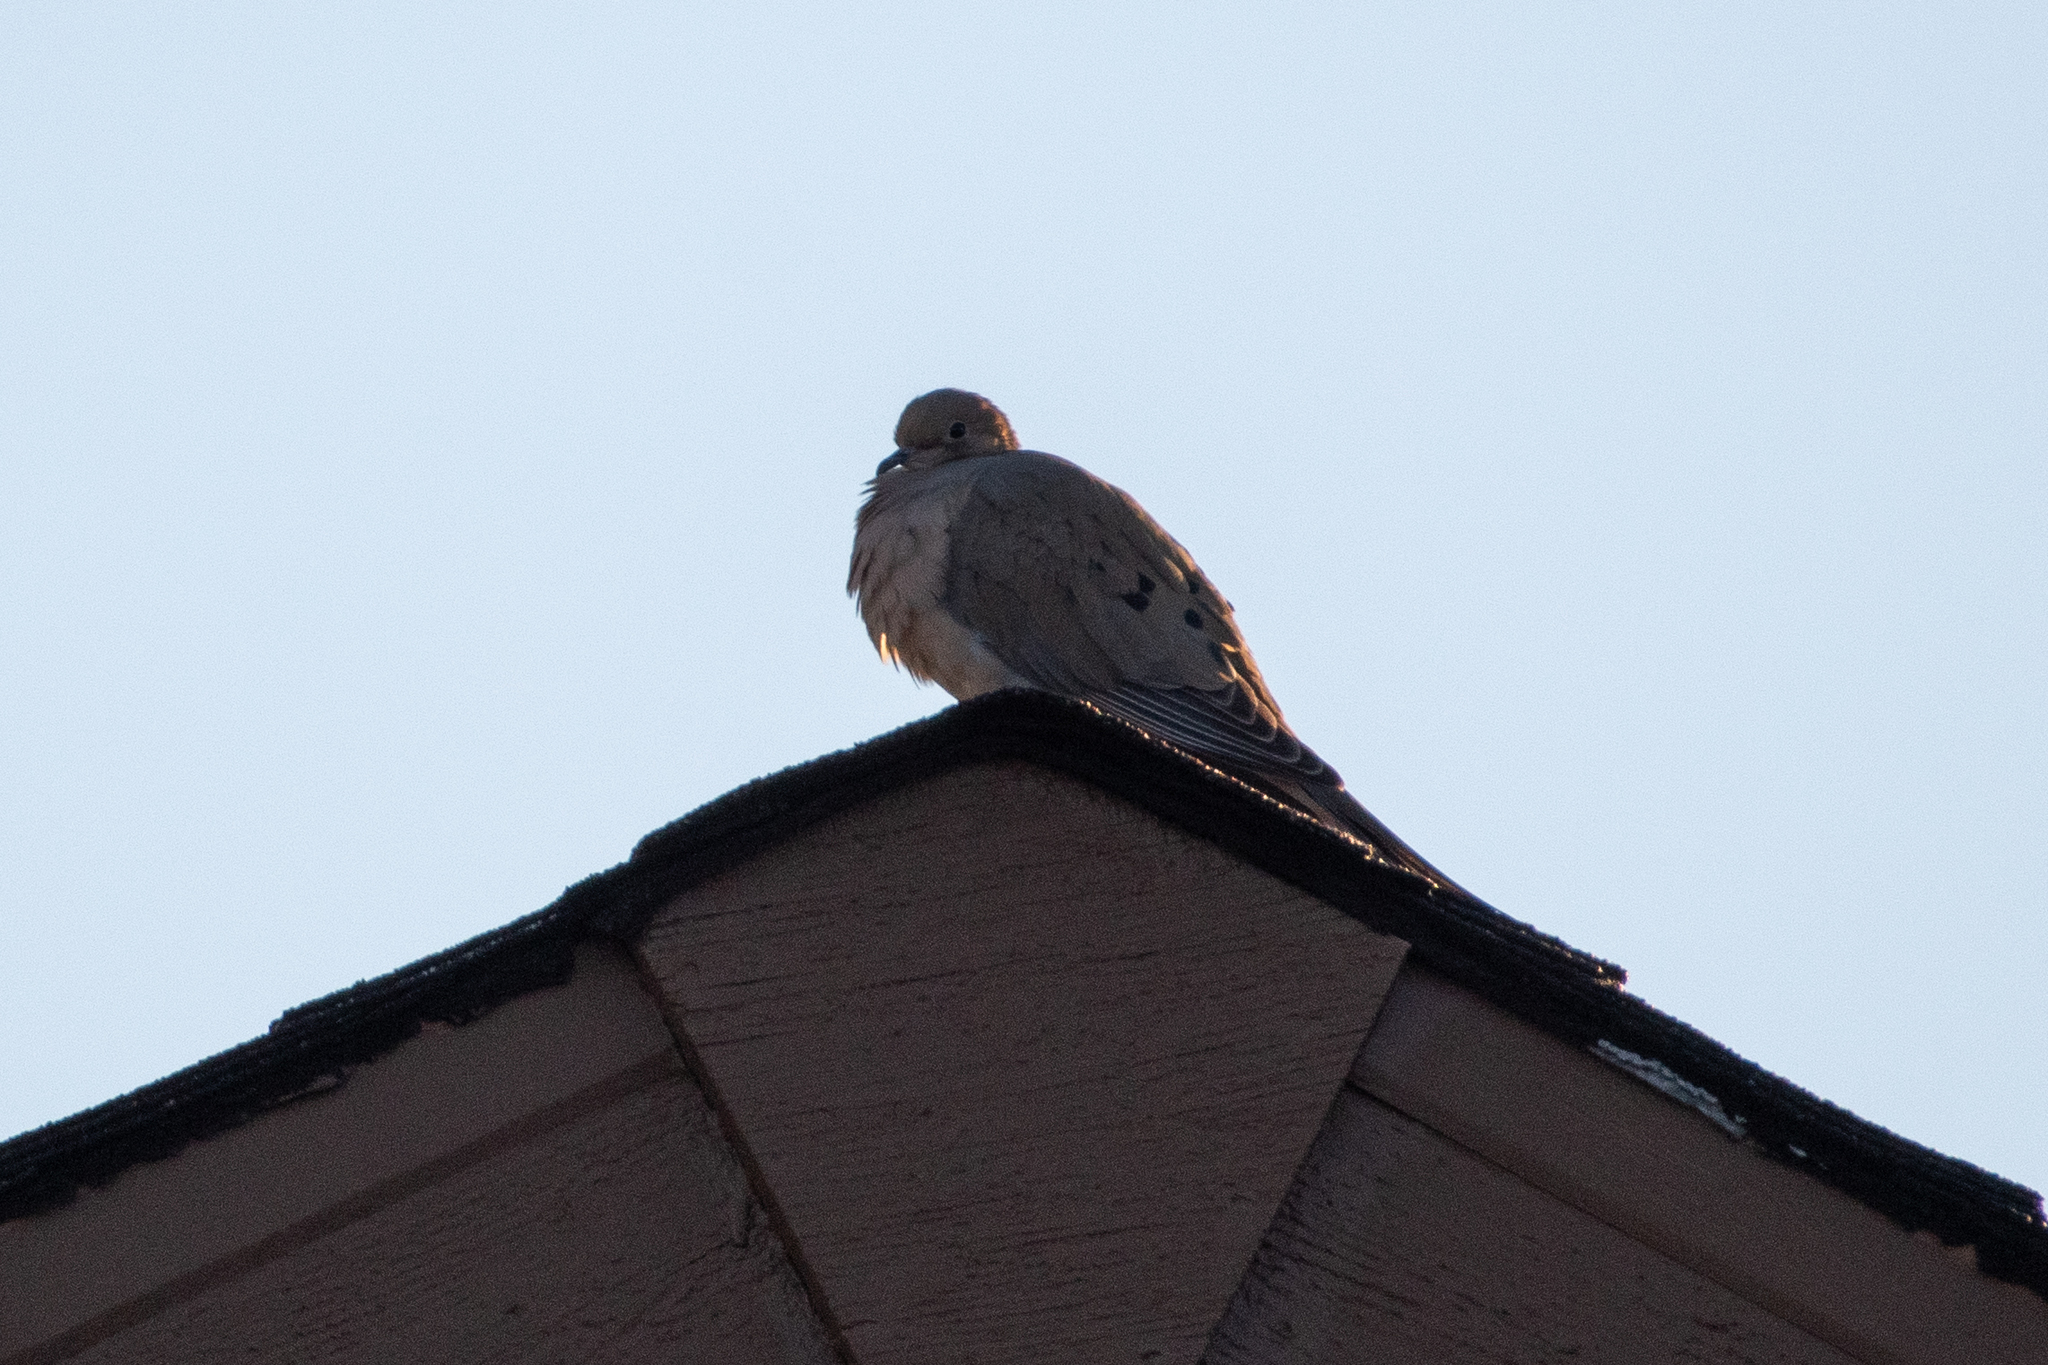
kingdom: Animalia
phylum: Chordata
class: Aves
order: Columbiformes
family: Columbidae
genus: Zenaida
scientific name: Zenaida macroura
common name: Mourning dove
